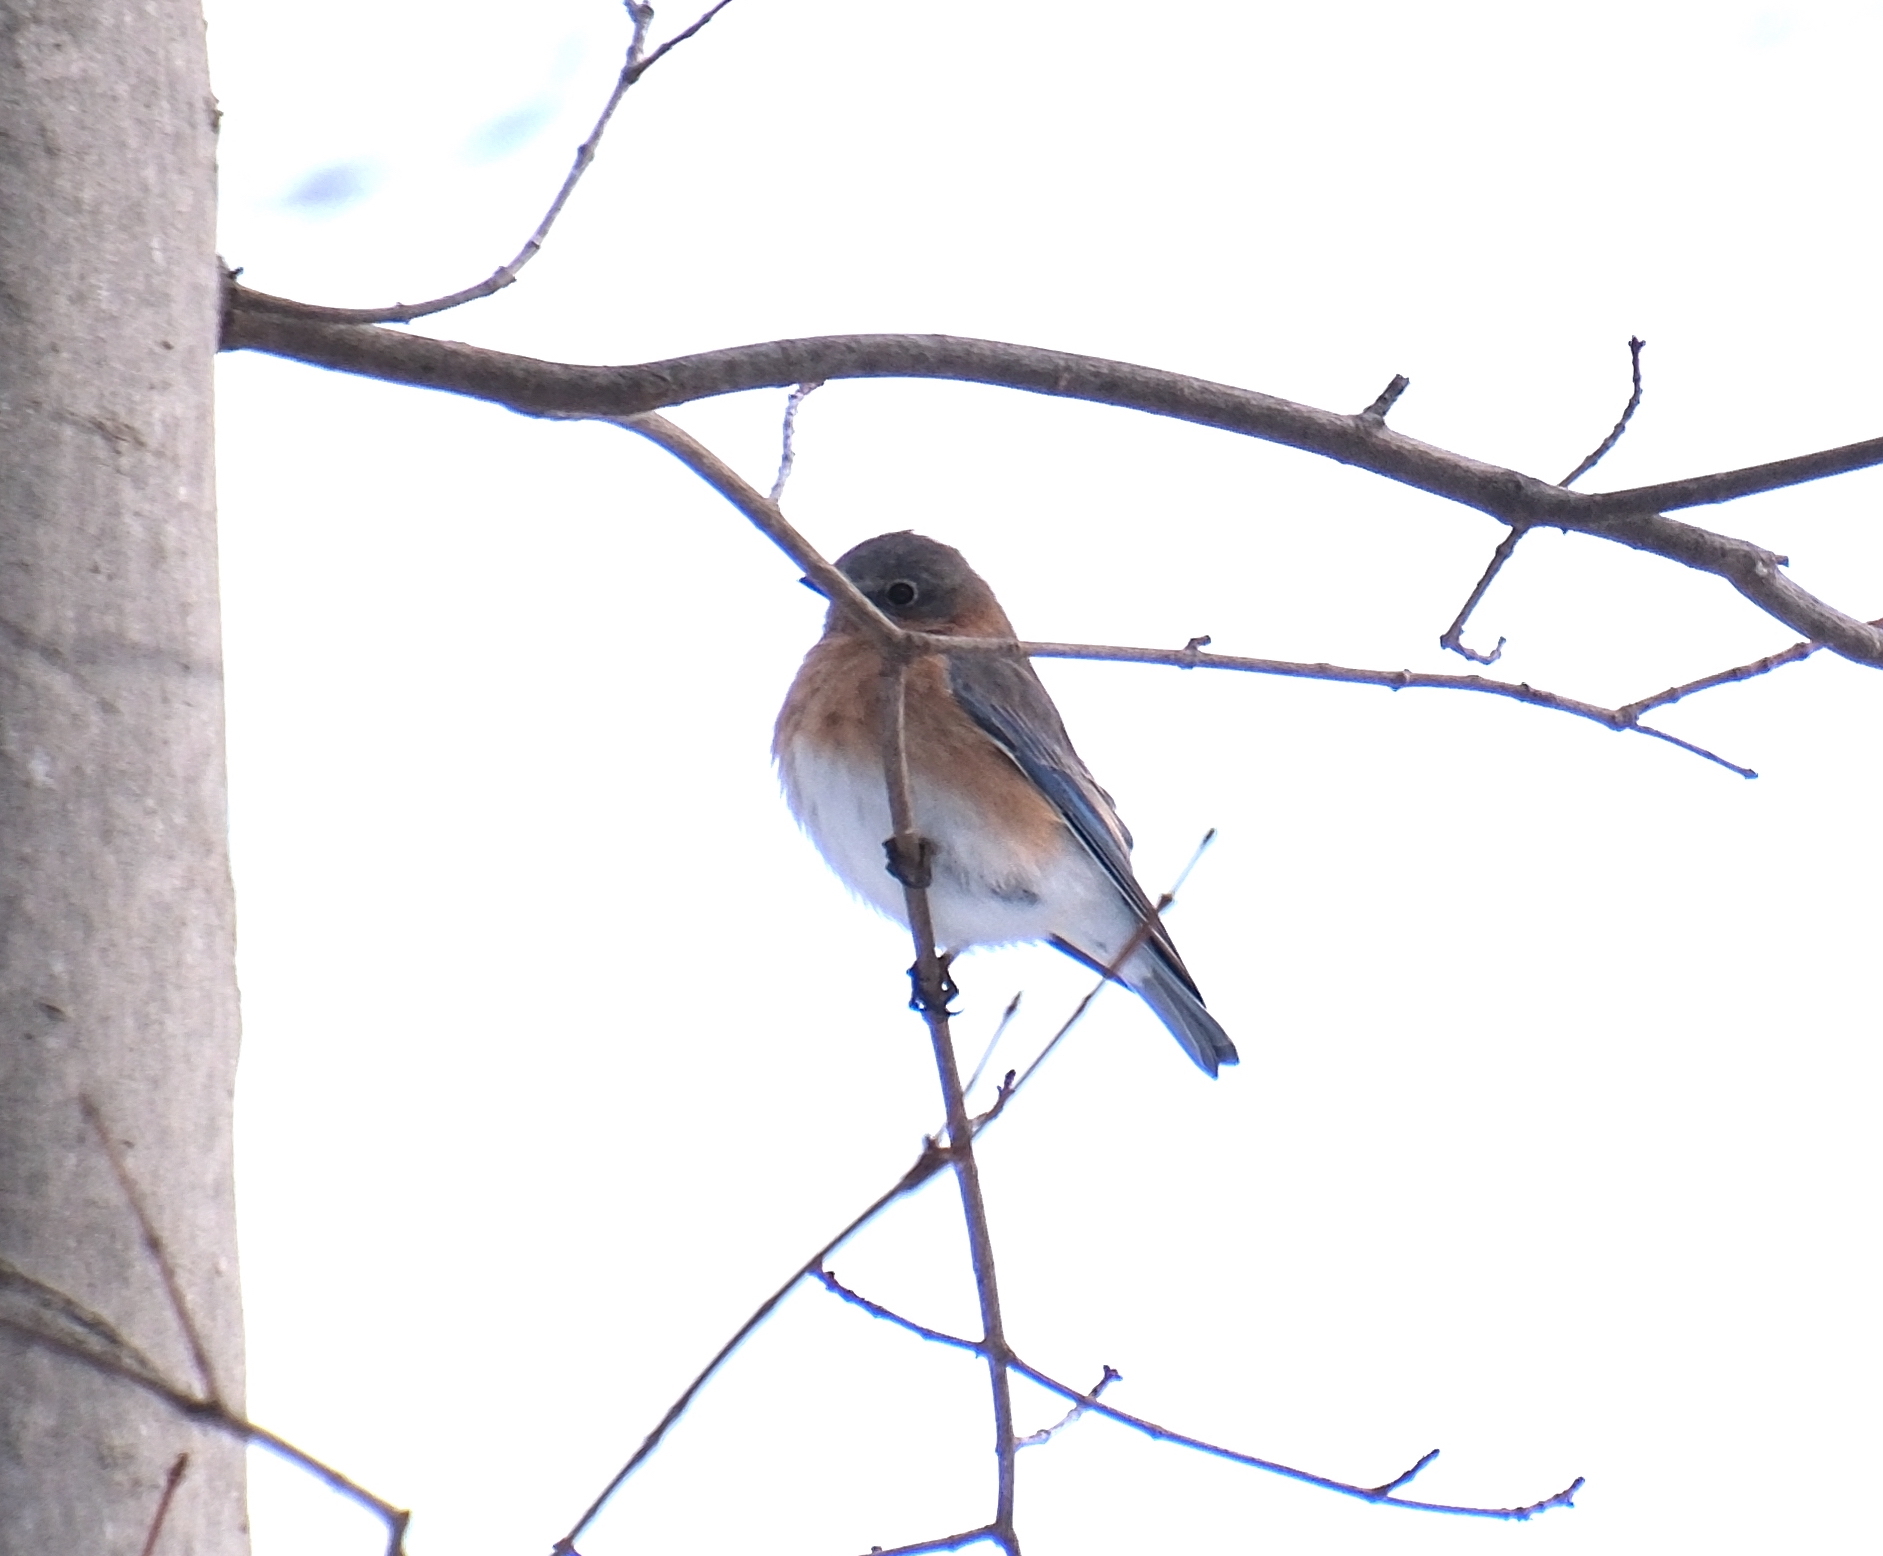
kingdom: Animalia
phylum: Chordata
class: Aves
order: Passeriformes
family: Turdidae
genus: Sialia
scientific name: Sialia sialis
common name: Eastern bluebird
